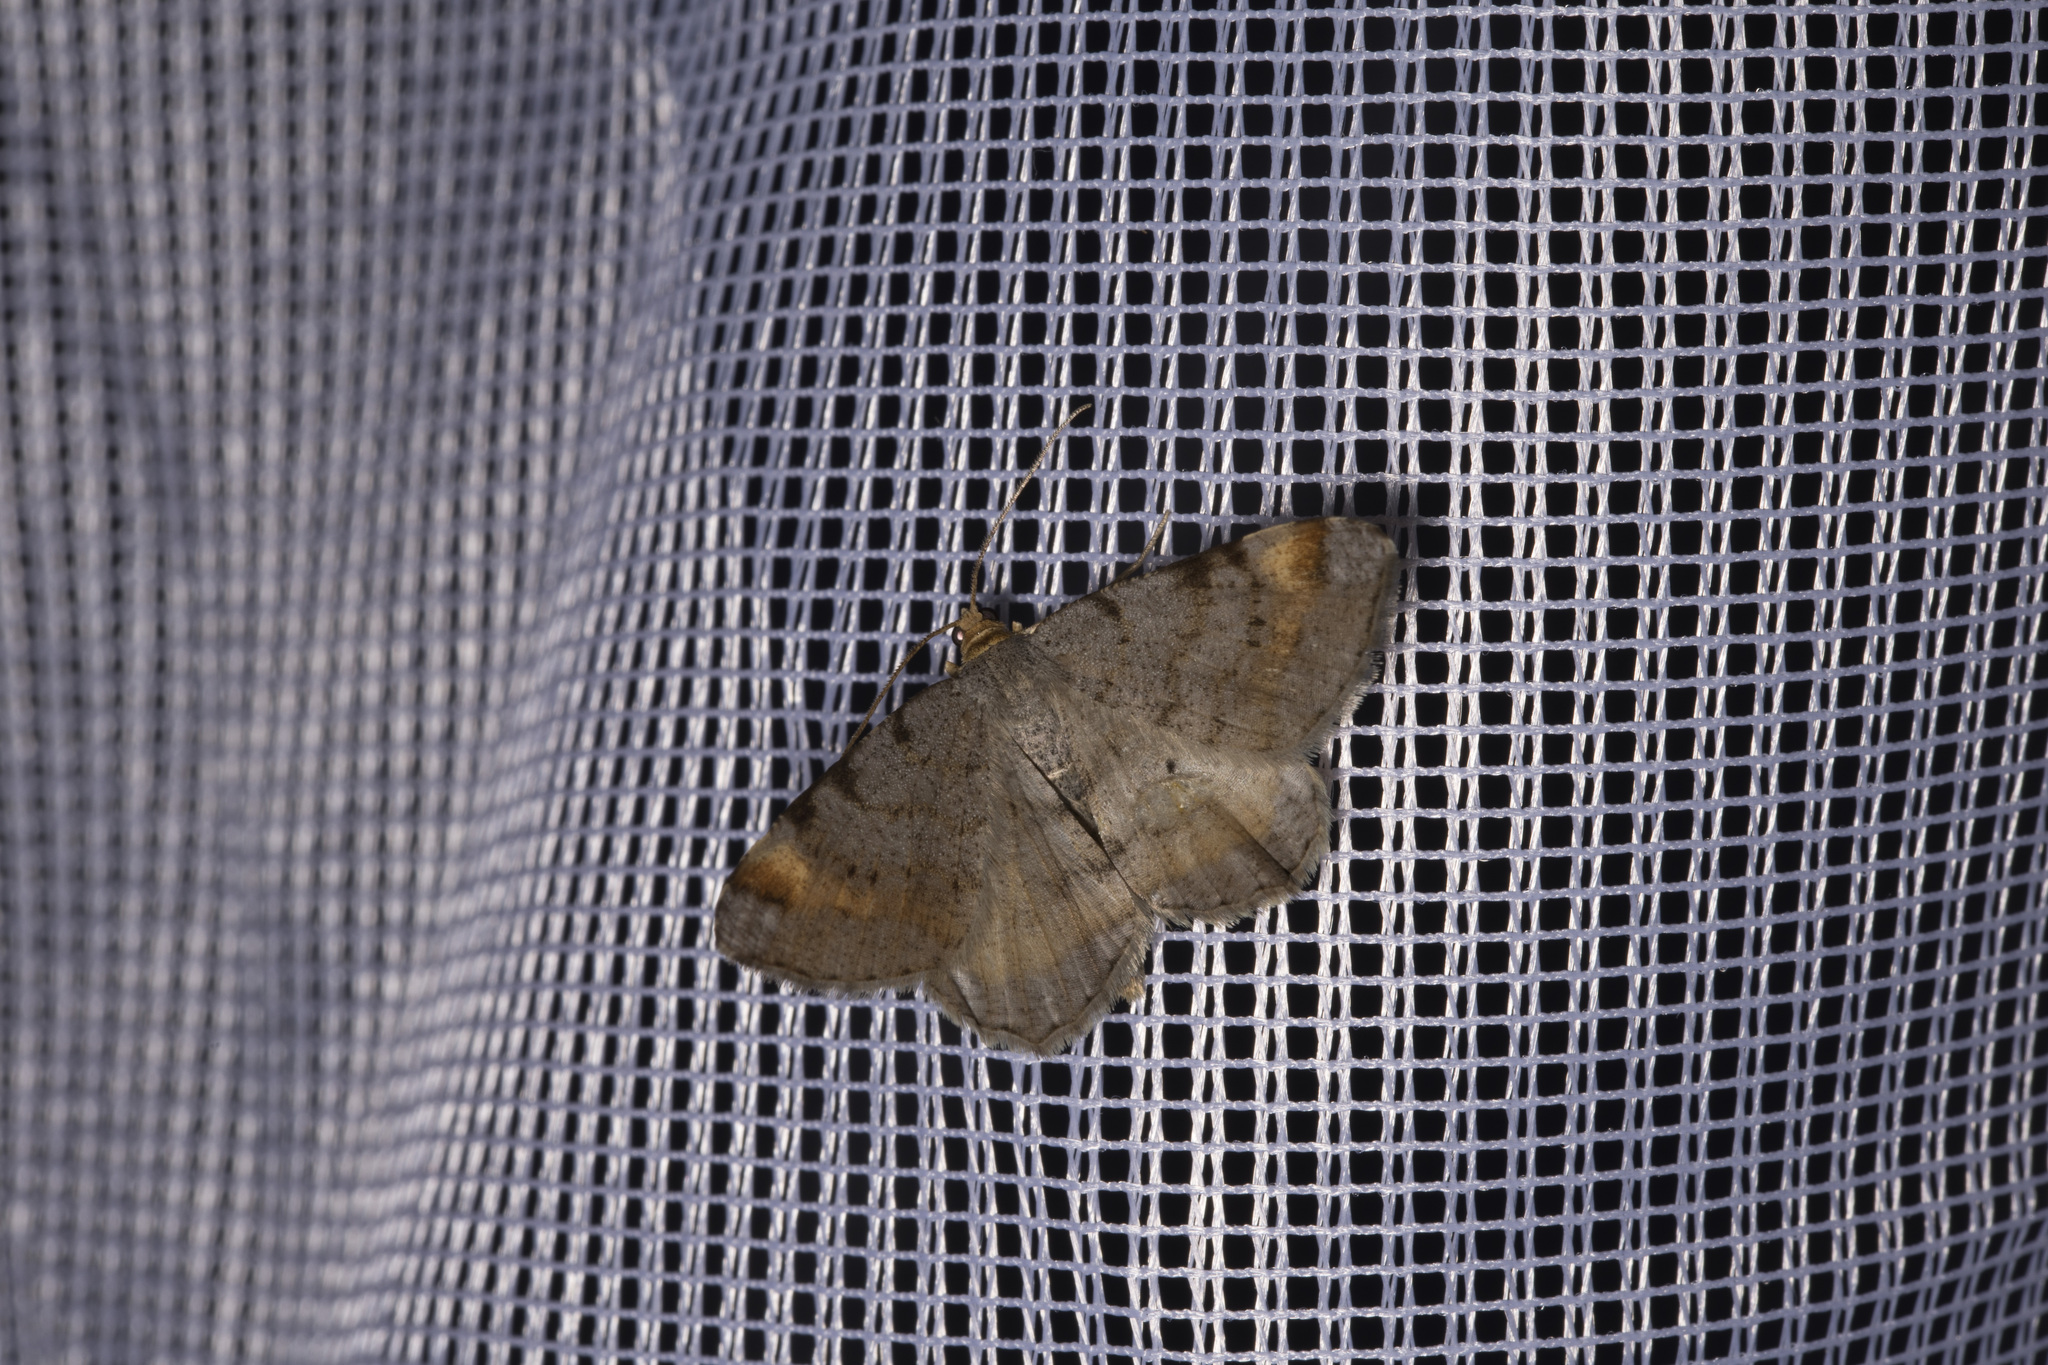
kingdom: Animalia
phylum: Arthropoda
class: Insecta
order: Lepidoptera
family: Geometridae
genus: Macaria
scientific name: Macaria liturata
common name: Tawny-barred angle
